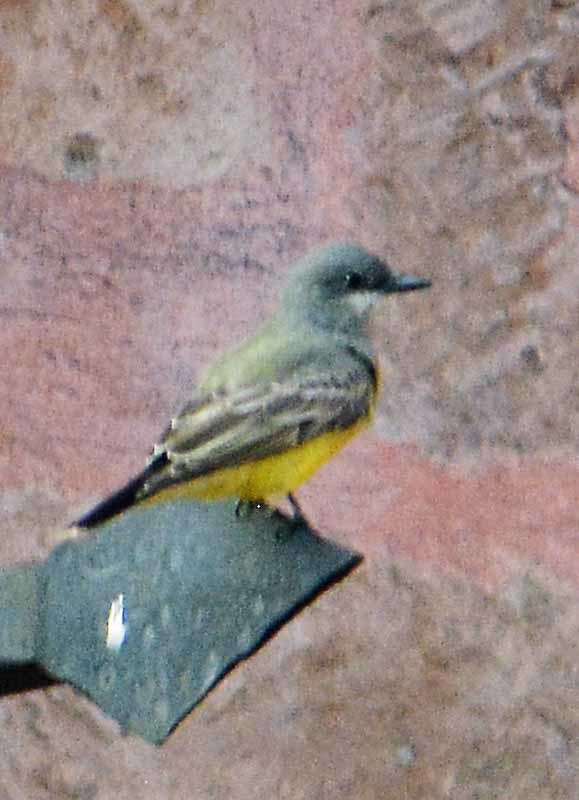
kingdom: Animalia
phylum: Chordata
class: Aves
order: Passeriformes
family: Tyrannidae
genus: Tyrannus
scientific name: Tyrannus vociferans
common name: Cassin's kingbird
